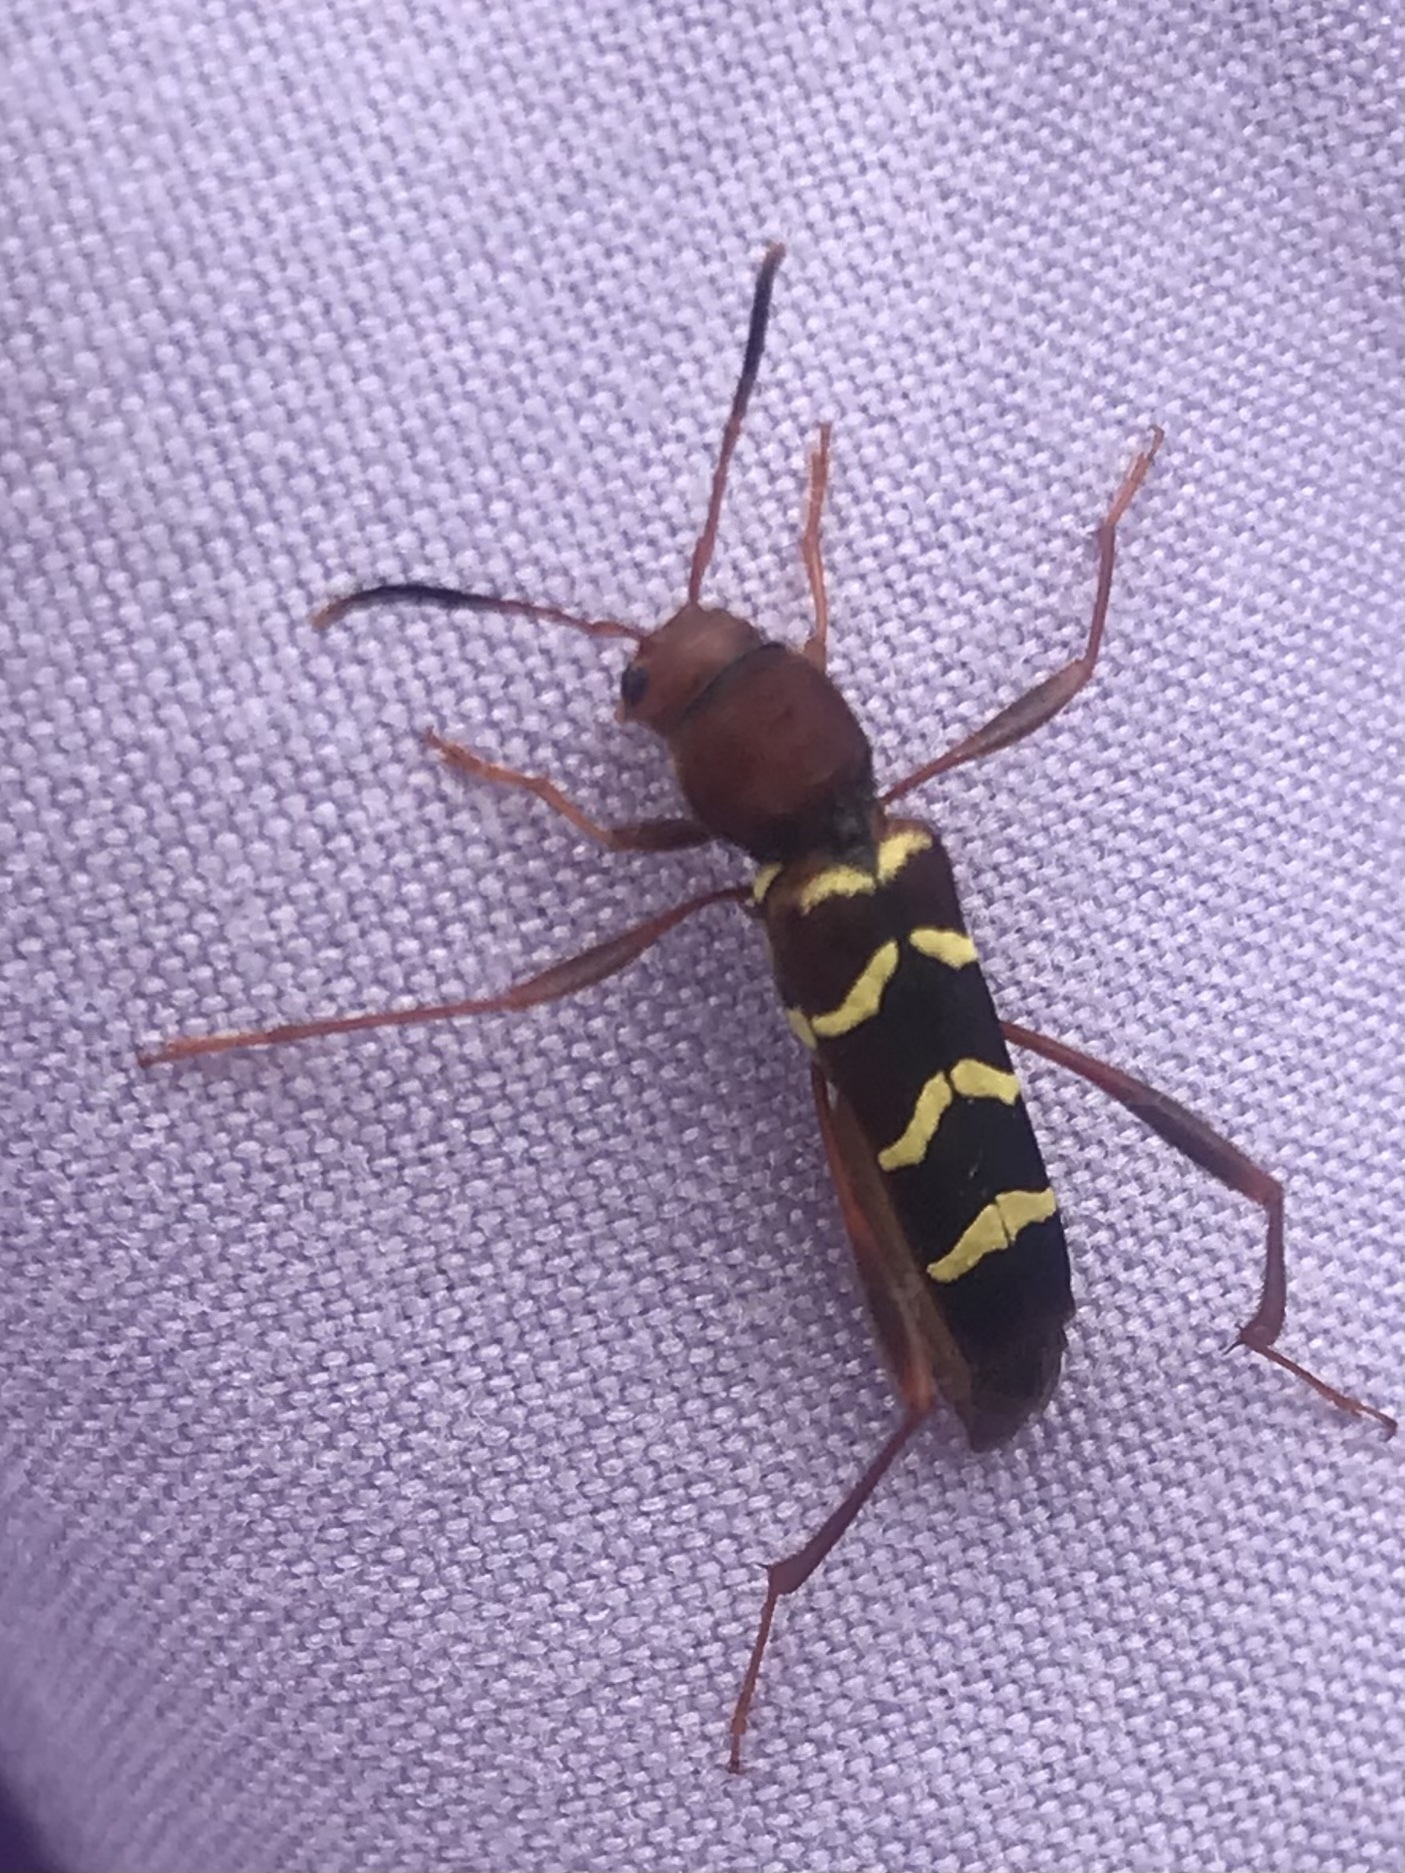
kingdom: Animalia
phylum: Arthropoda
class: Insecta
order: Coleoptera
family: Cerambycidae
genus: Neoclytus
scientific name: Neoclytus acuminatus
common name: Read-headed ash borer
